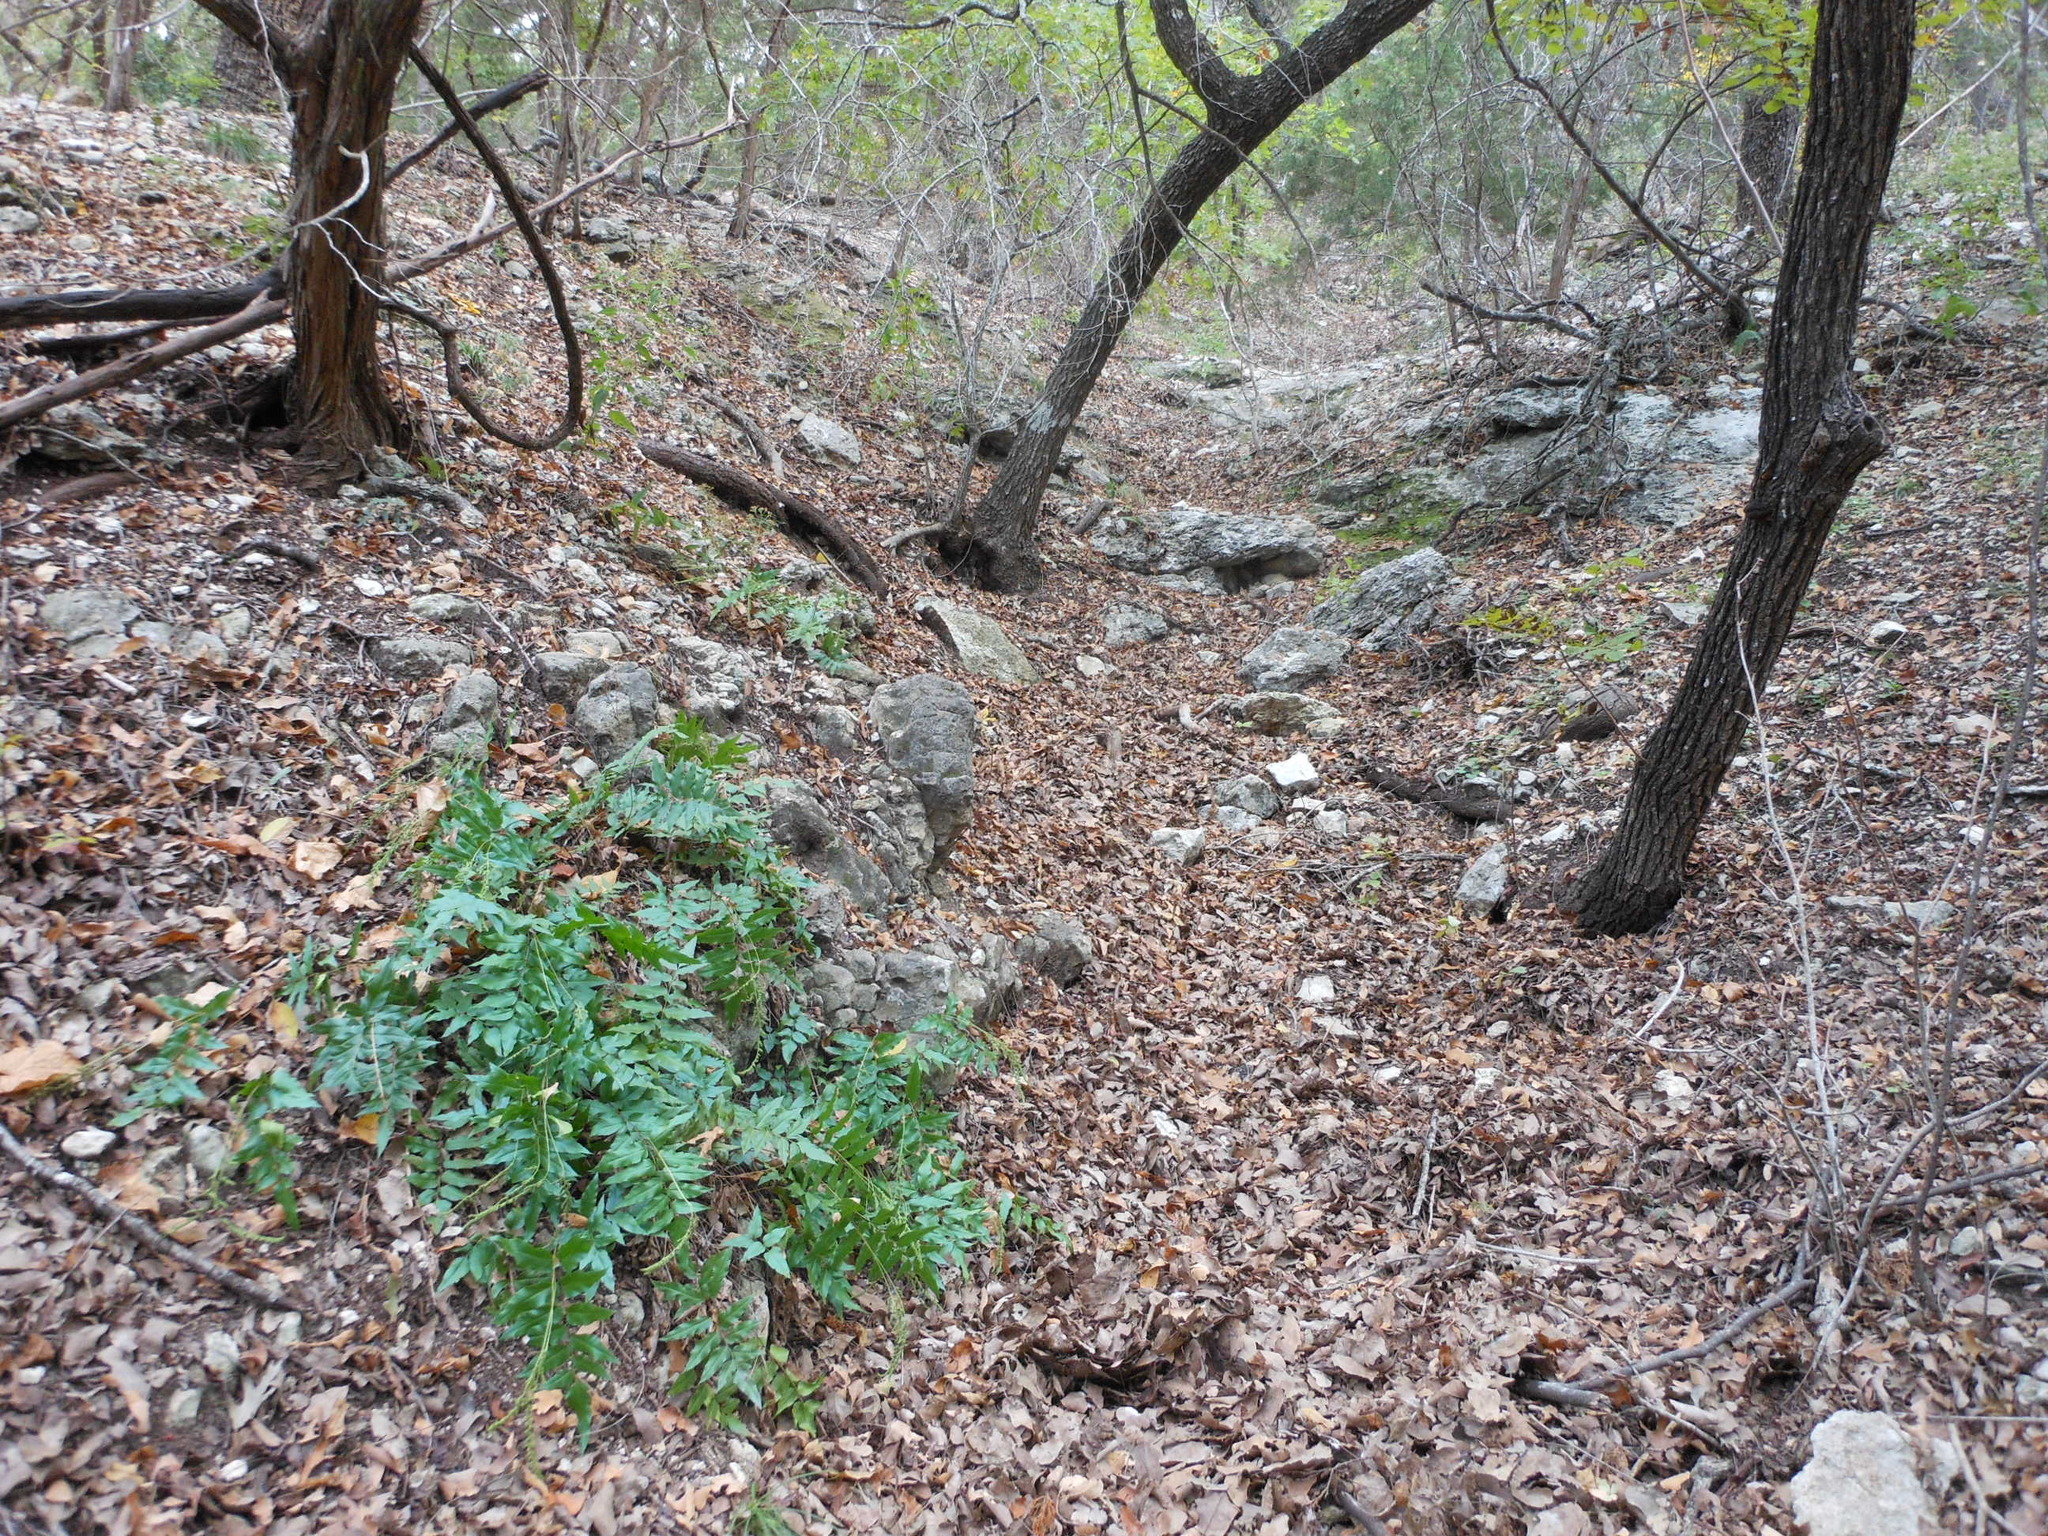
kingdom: Plantae
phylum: Tracheophyta
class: Polypodiopsida
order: Schizaeales
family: Anemiaceae
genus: Anemia
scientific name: Anemia mexicana
